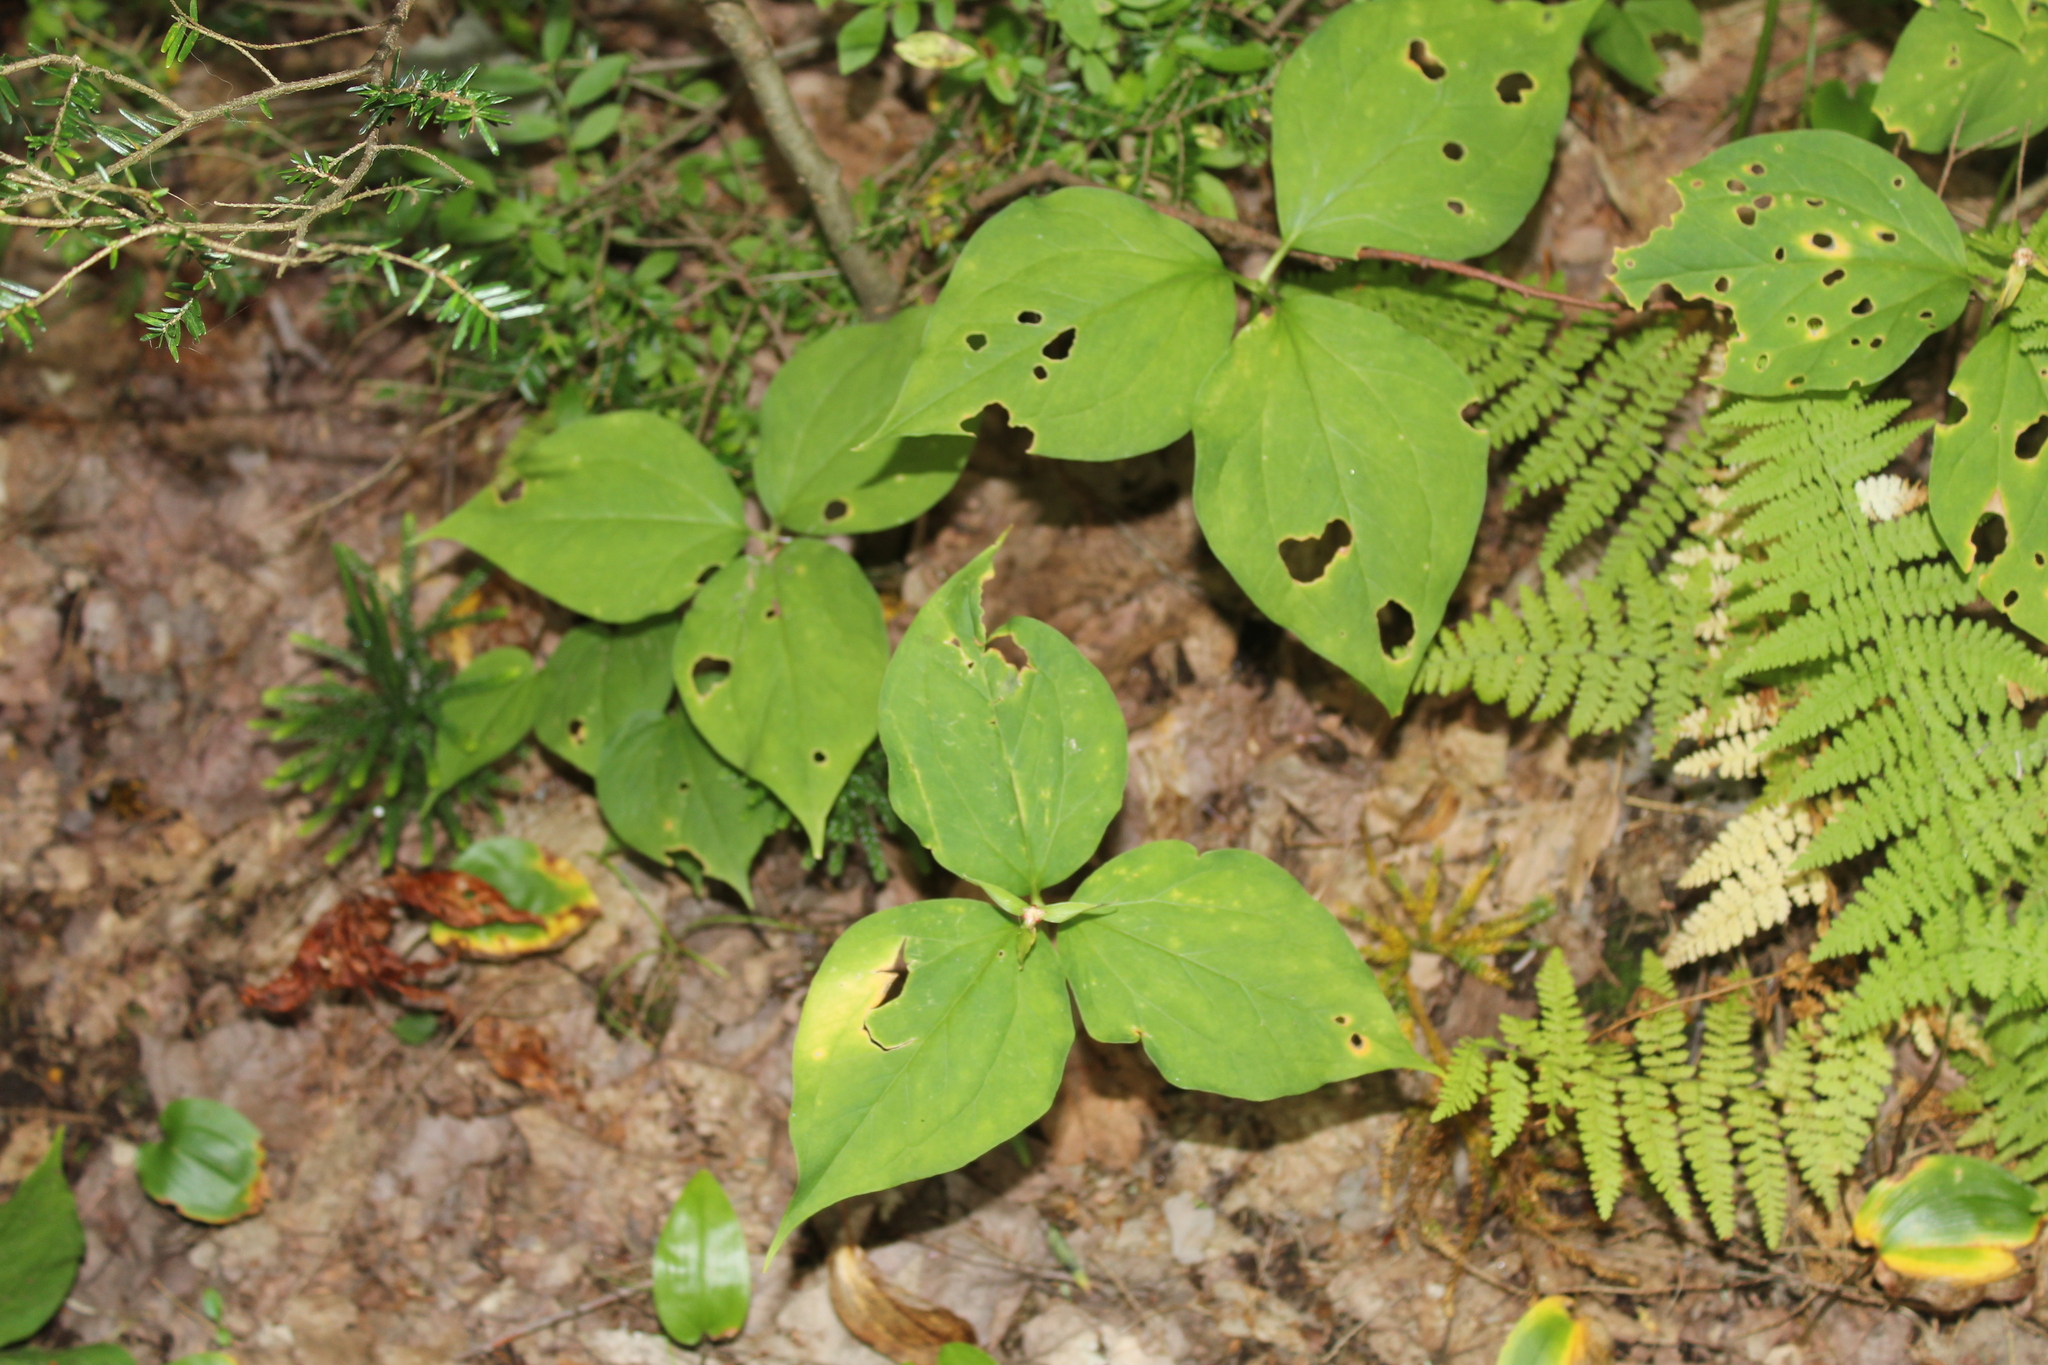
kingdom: Plantae
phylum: Tracheophyta
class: Liliopsida
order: Liliales
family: Melanthiaceae
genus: Trillium
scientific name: Trillium undulatum
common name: Paint trillium
